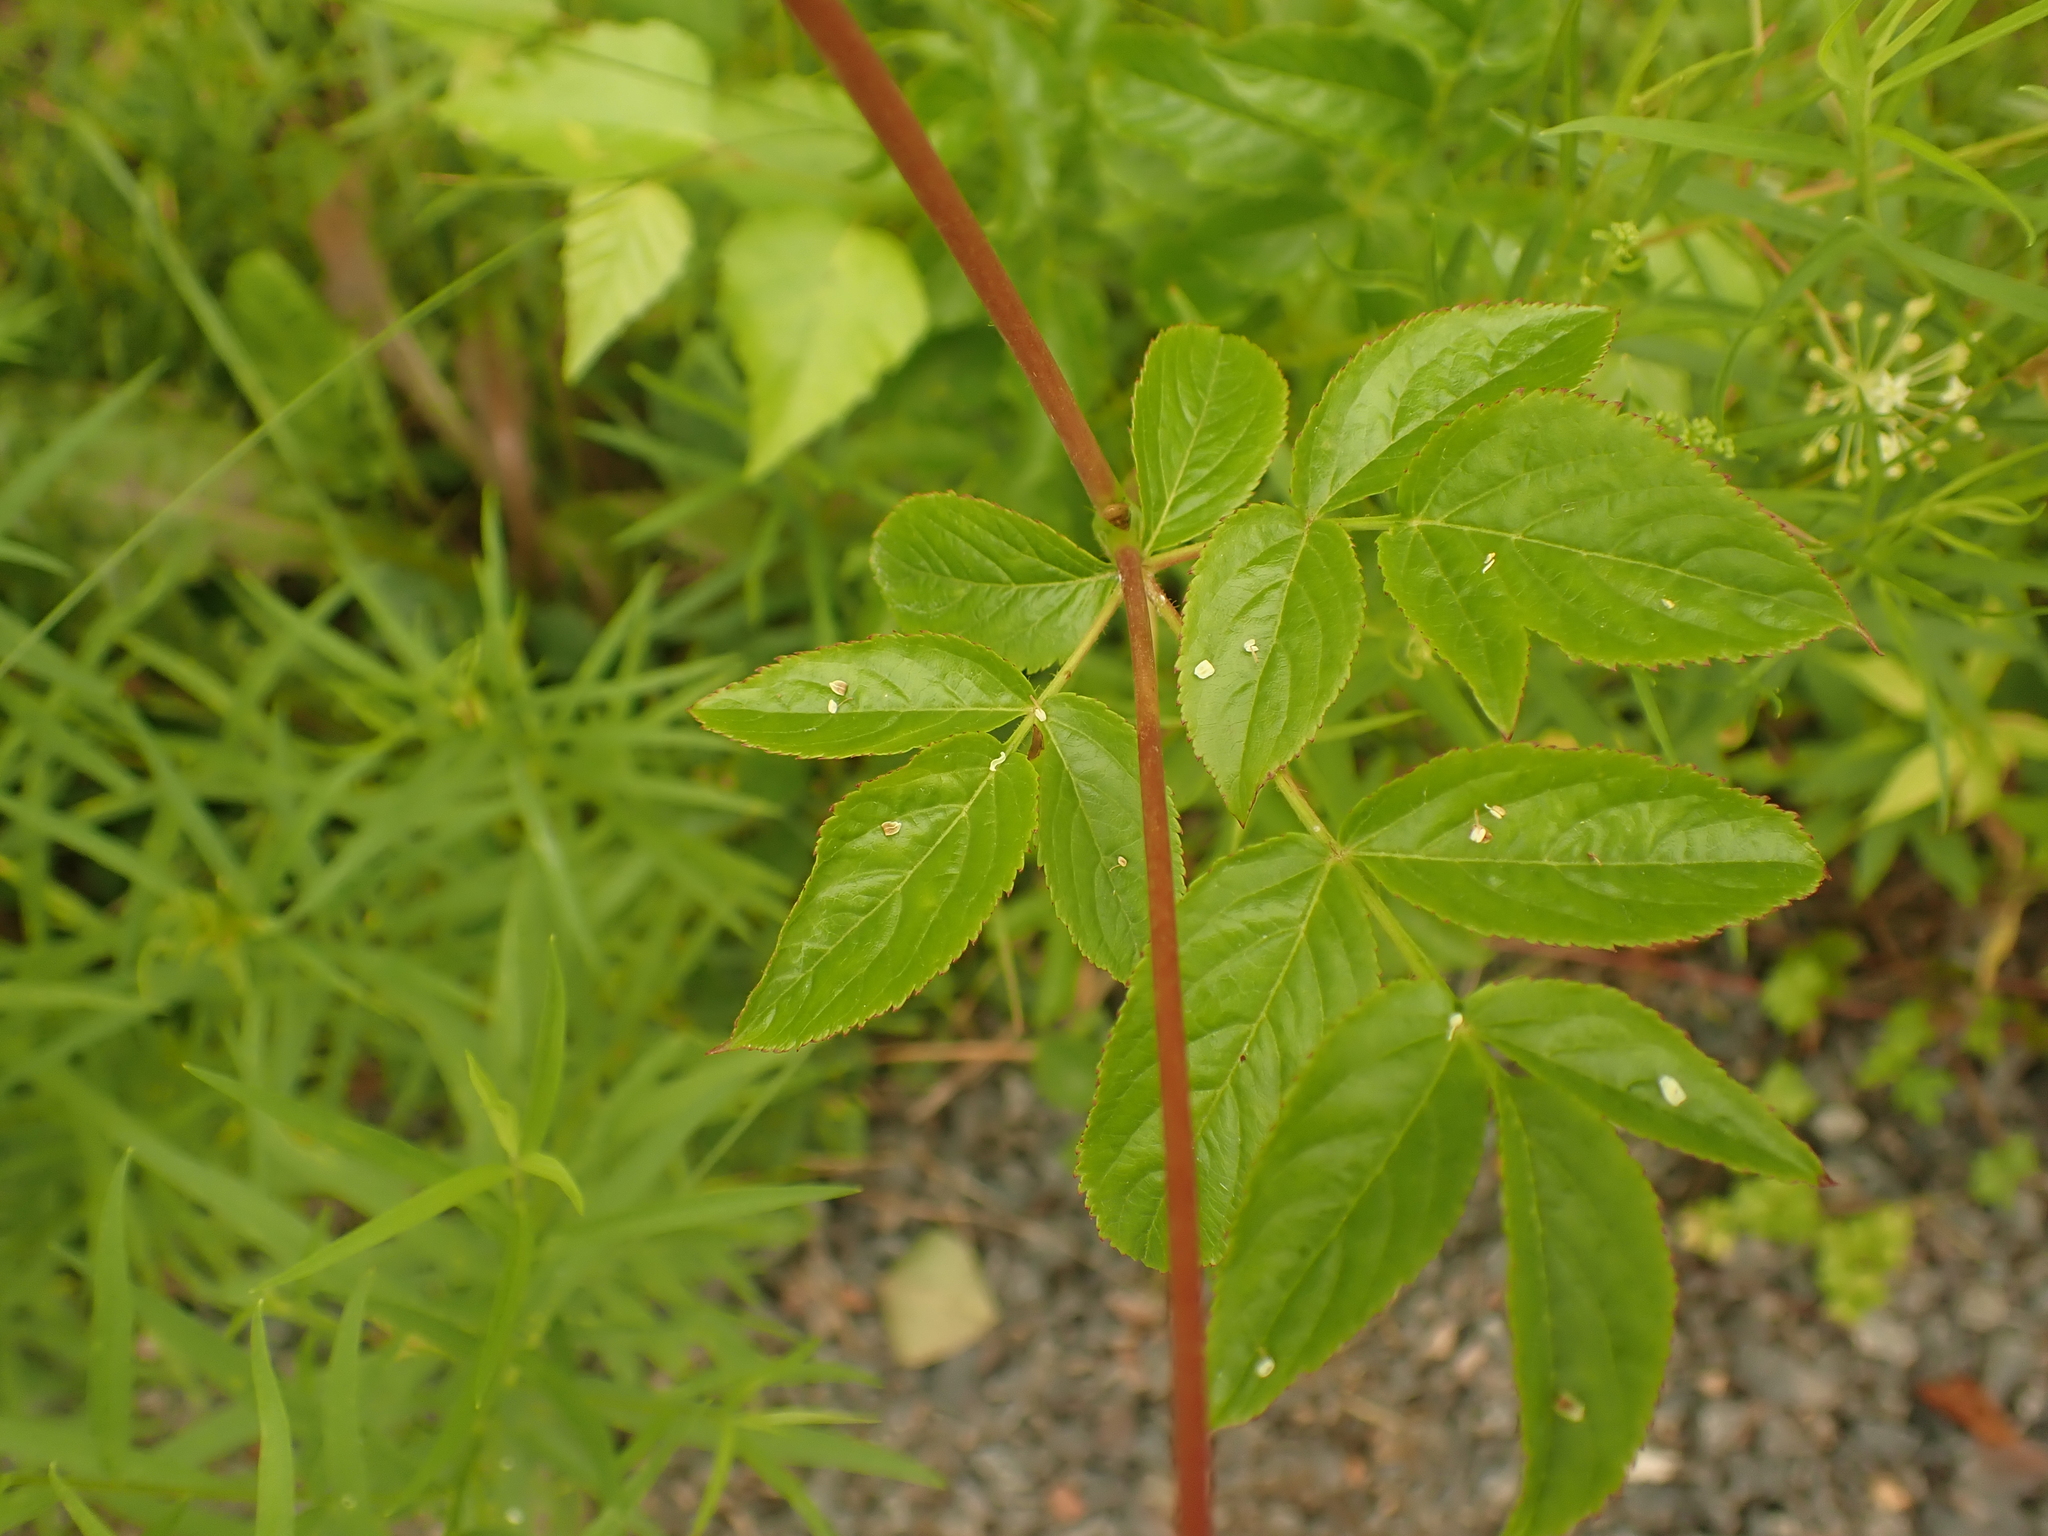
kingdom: Plantae
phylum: Tracheophyta
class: Magnoliopsida
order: Apiales
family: Araliaceae
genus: Aralia
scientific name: Aralia hispida
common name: Bristly sarsaparilla
